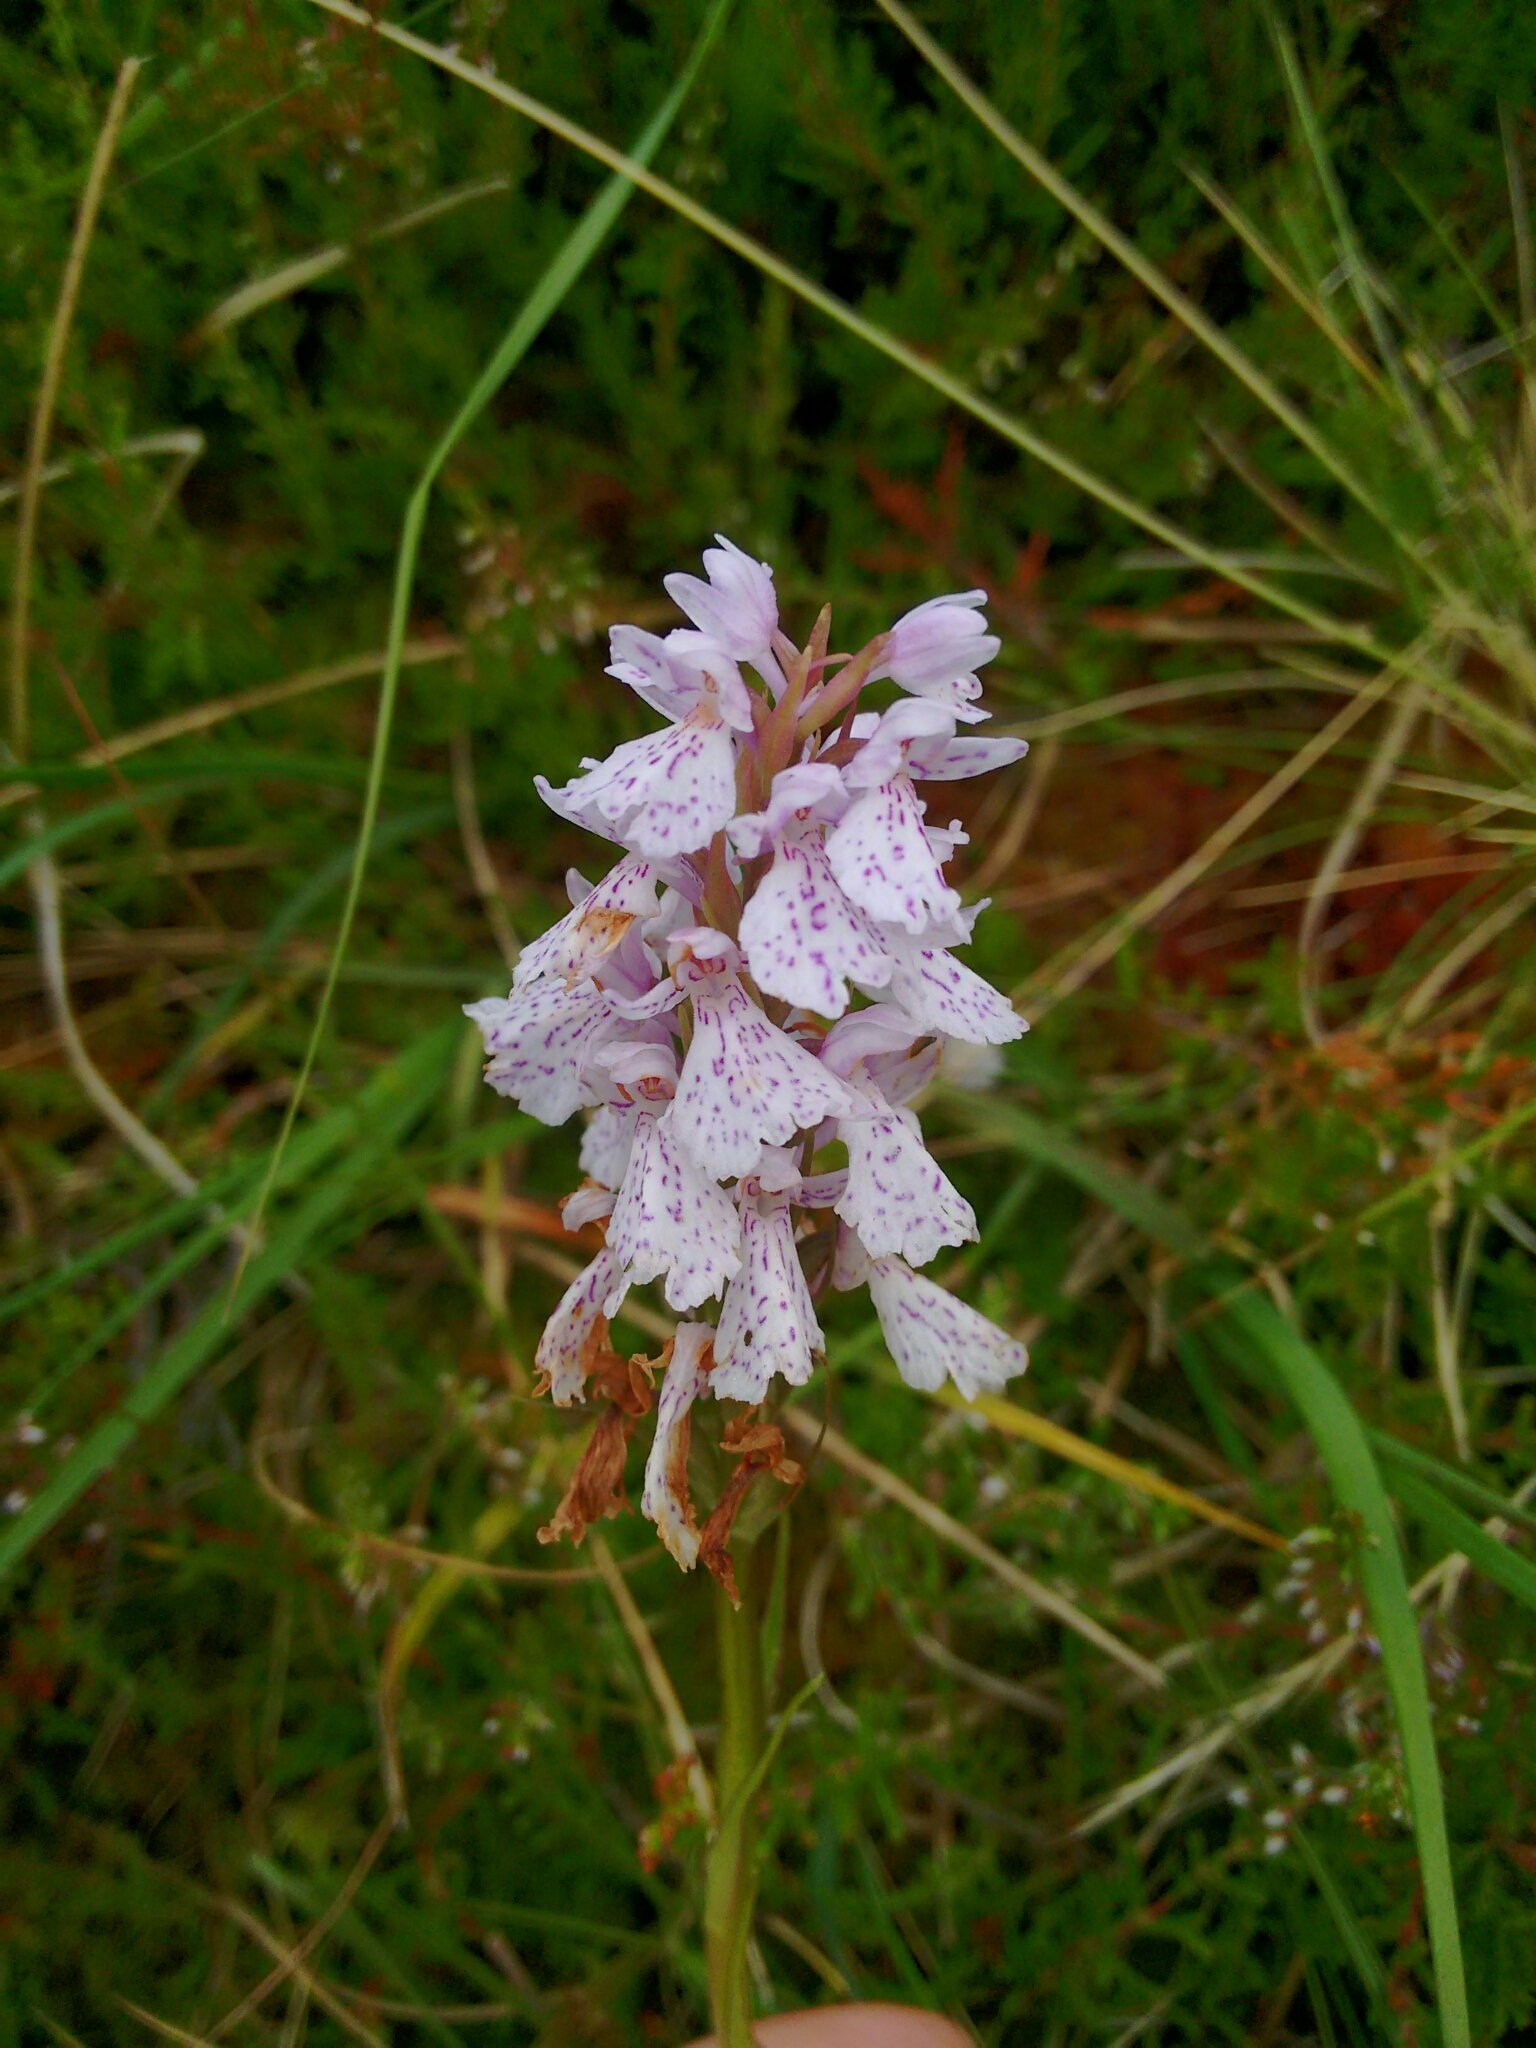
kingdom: Plantae
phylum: Tracheophyta
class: Liliopsida
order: Asparagales
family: Orchidaceae
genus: Dactylorhiza
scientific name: Dactylorhiza maculata
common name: Heath spotted-orchid
